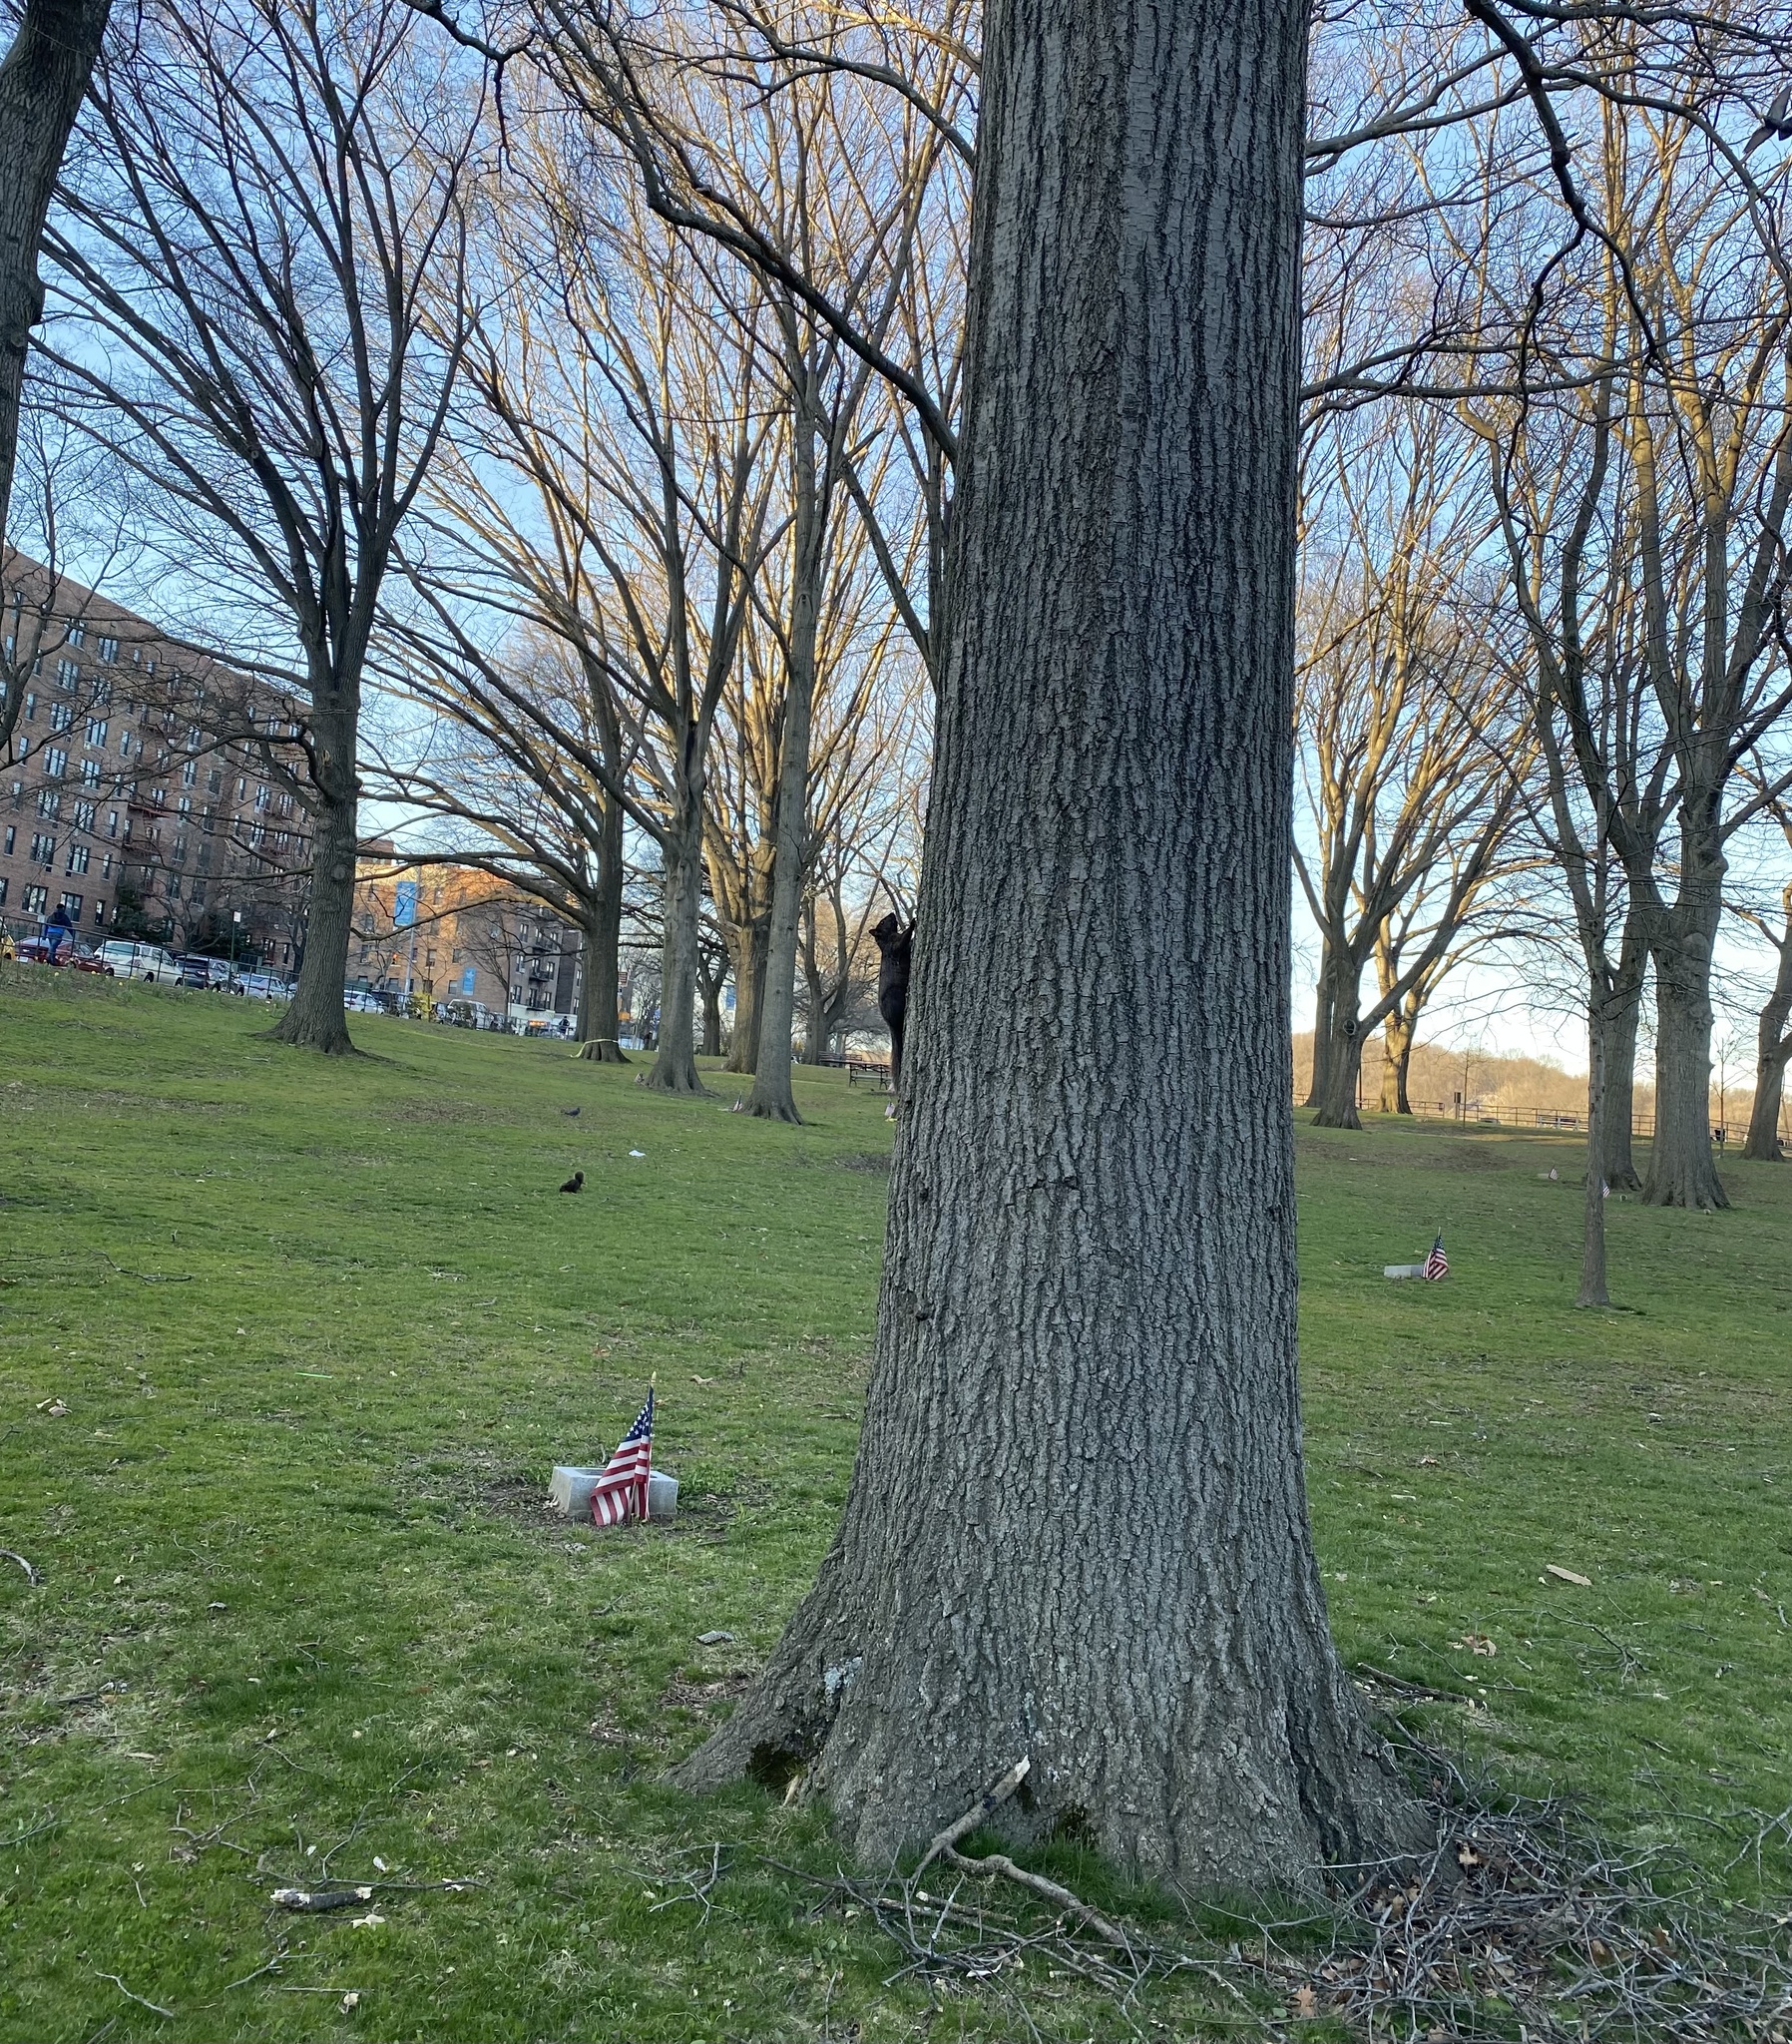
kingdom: Animalia
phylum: Chordata
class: Mammalia
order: Rodentia
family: Sciuridae
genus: Sciurus
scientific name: Sciurus carolinensis
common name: Eastern gray squirrel
